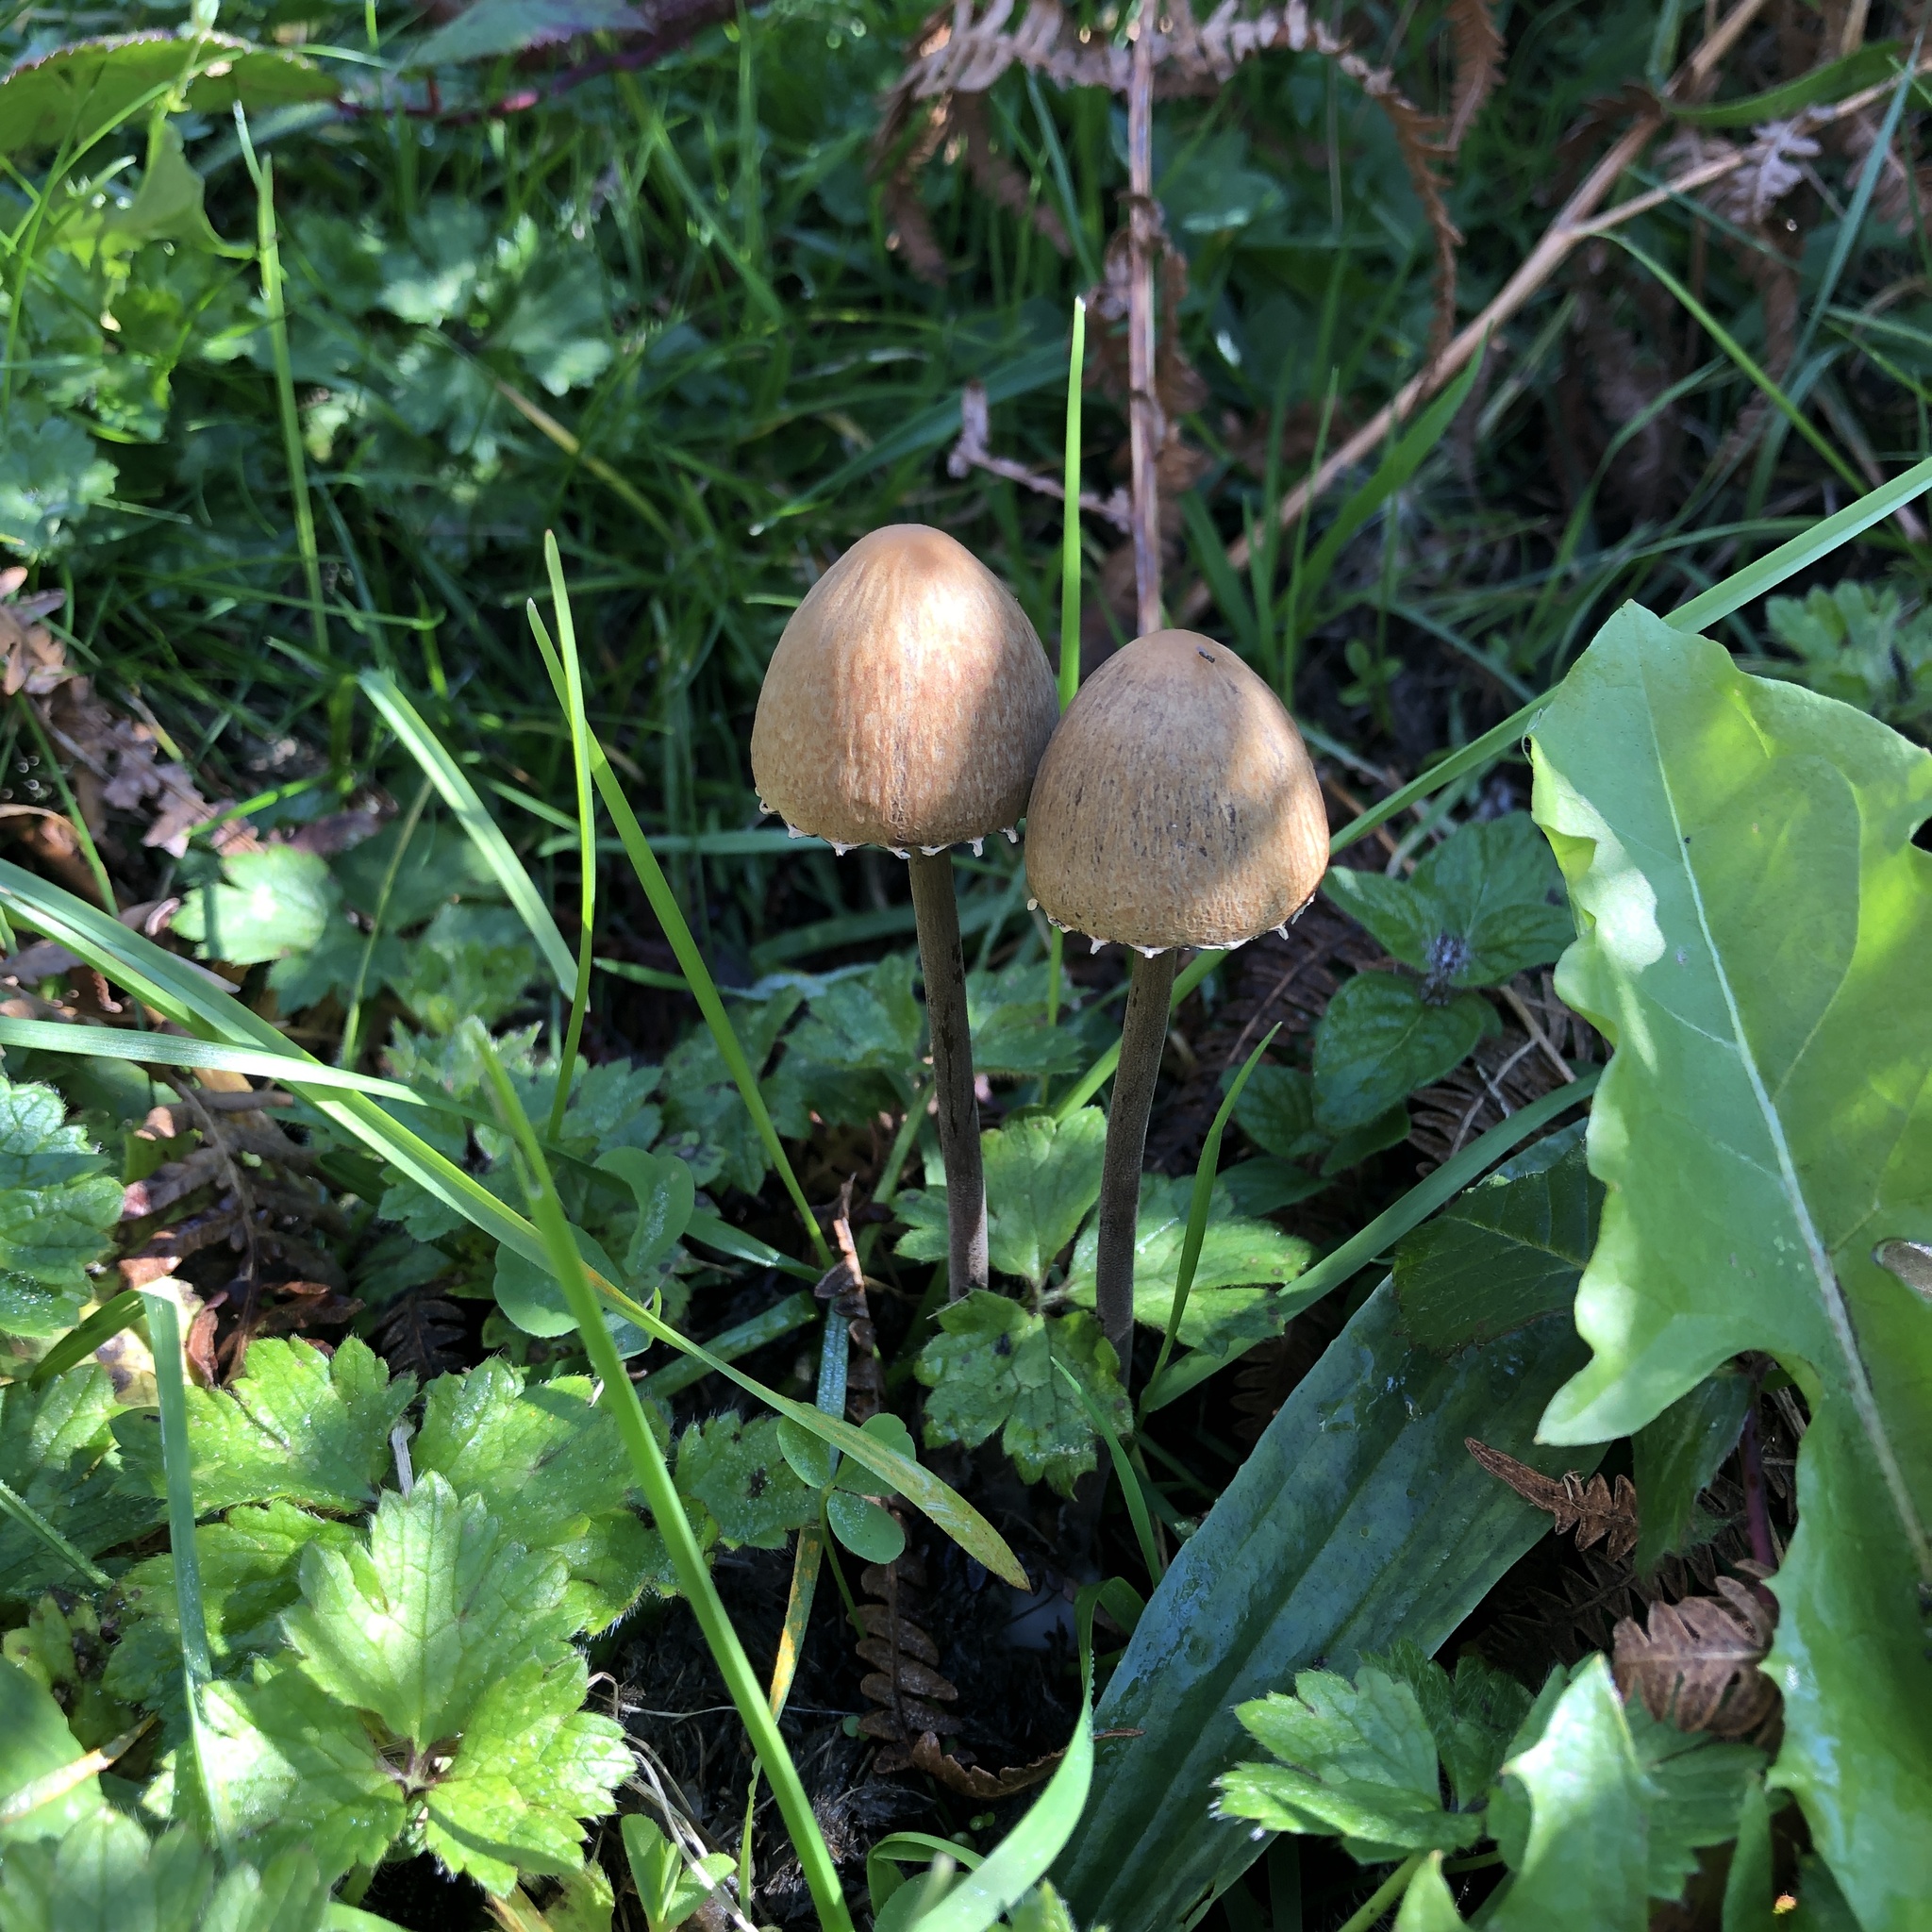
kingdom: Fungi
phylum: Basidiomycota
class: Agaricomycetes
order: Agaricales
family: Bolbitiaceae
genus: Panaeolus
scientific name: Panaeolus papilionaceus
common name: Petticoat mottlegill
